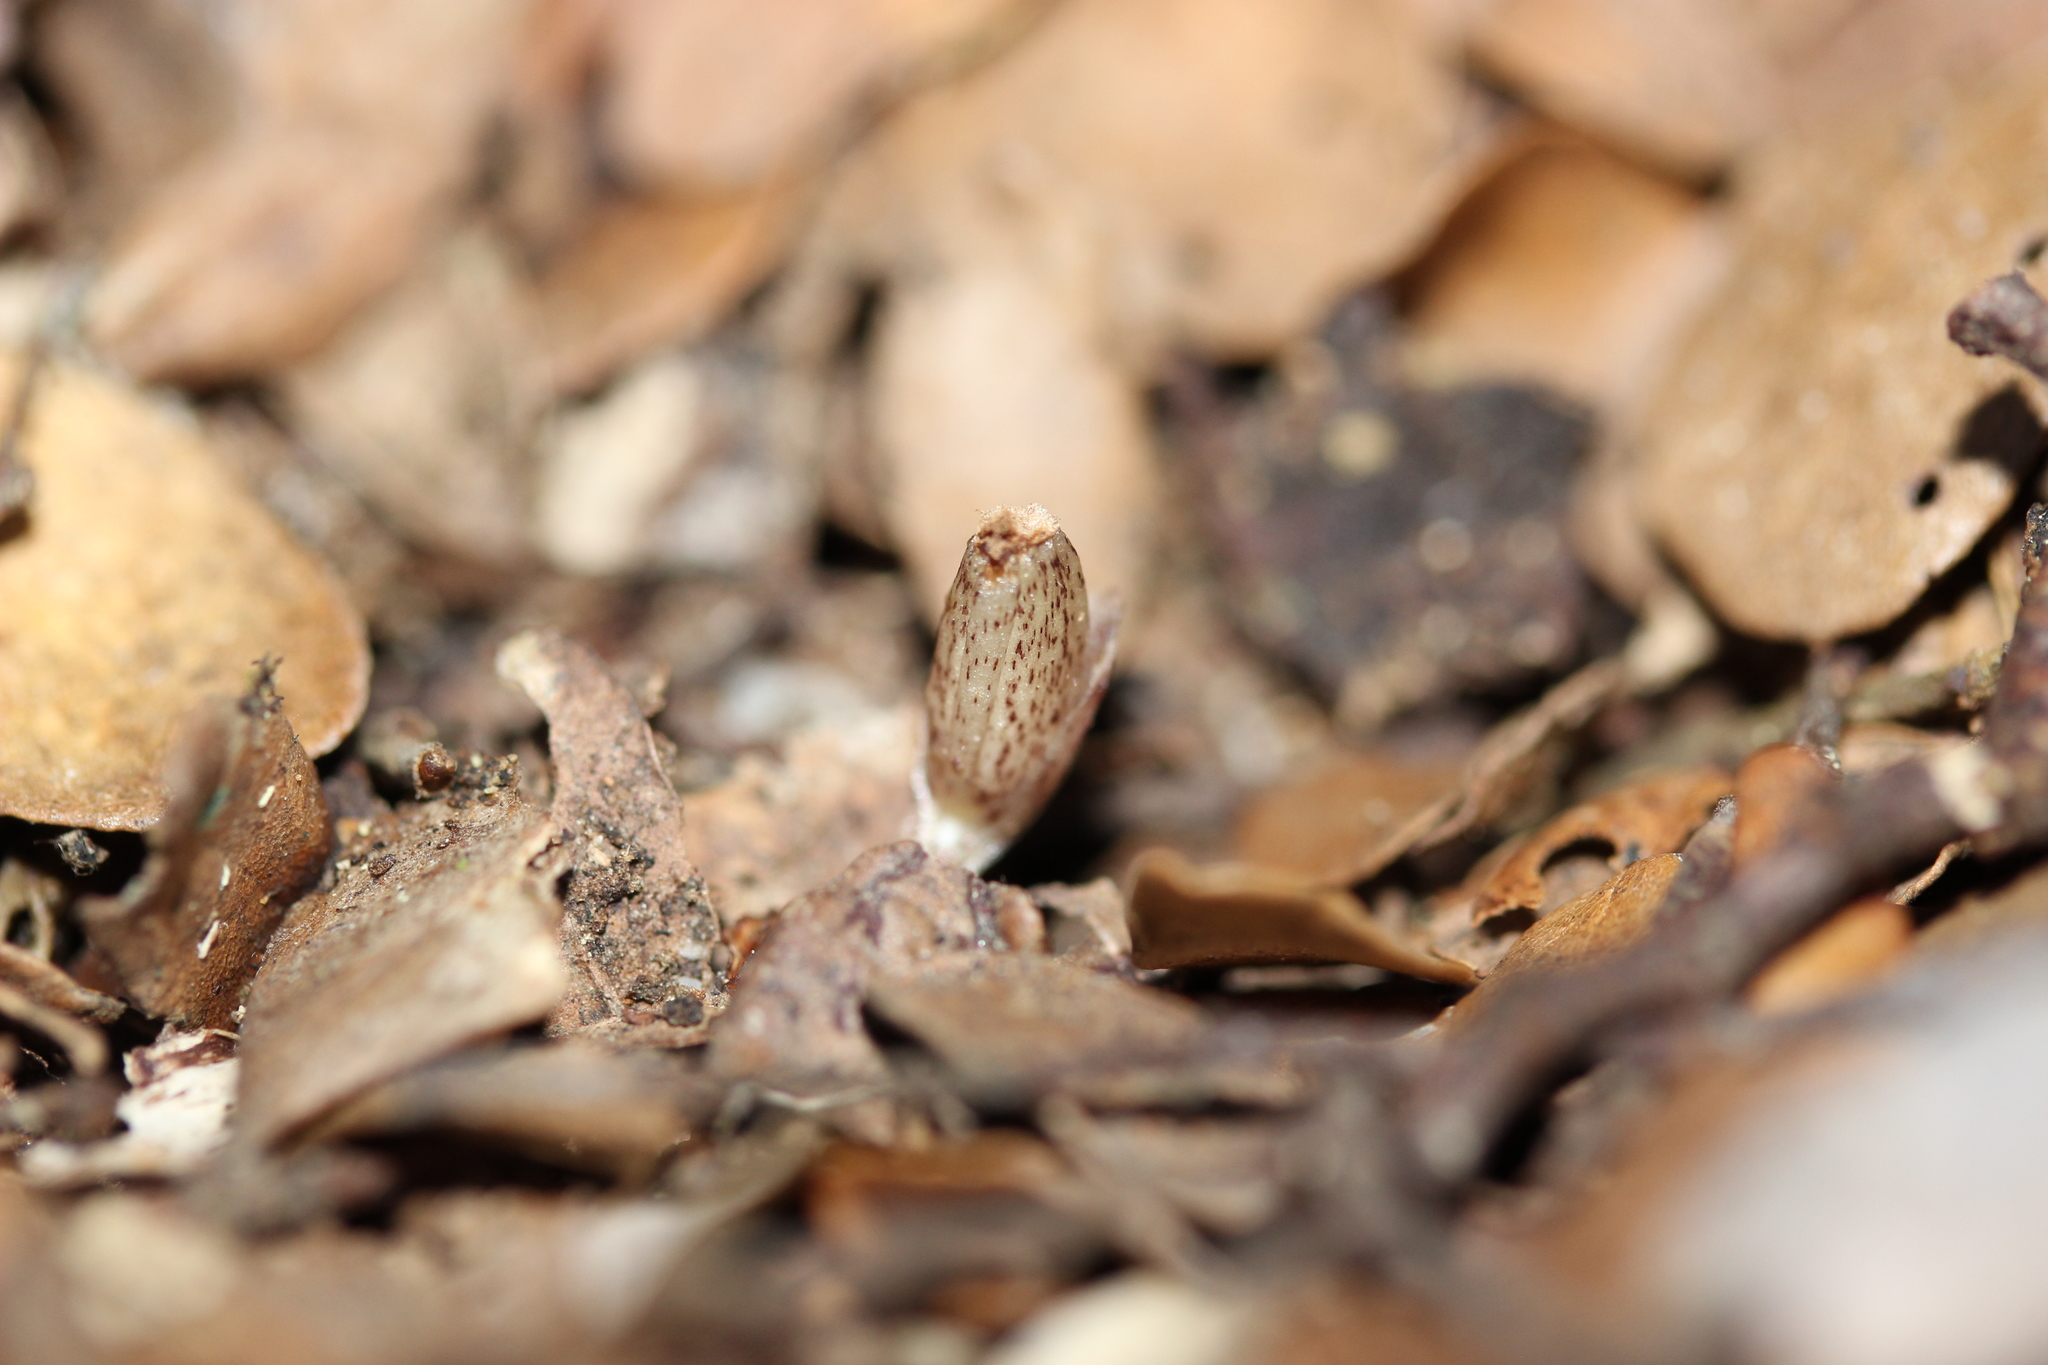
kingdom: Plantae
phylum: Tracheophyta
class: Liliopsida
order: Asparagales
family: Orchidaceae
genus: Corybas
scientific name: Corybas cryptanthus
